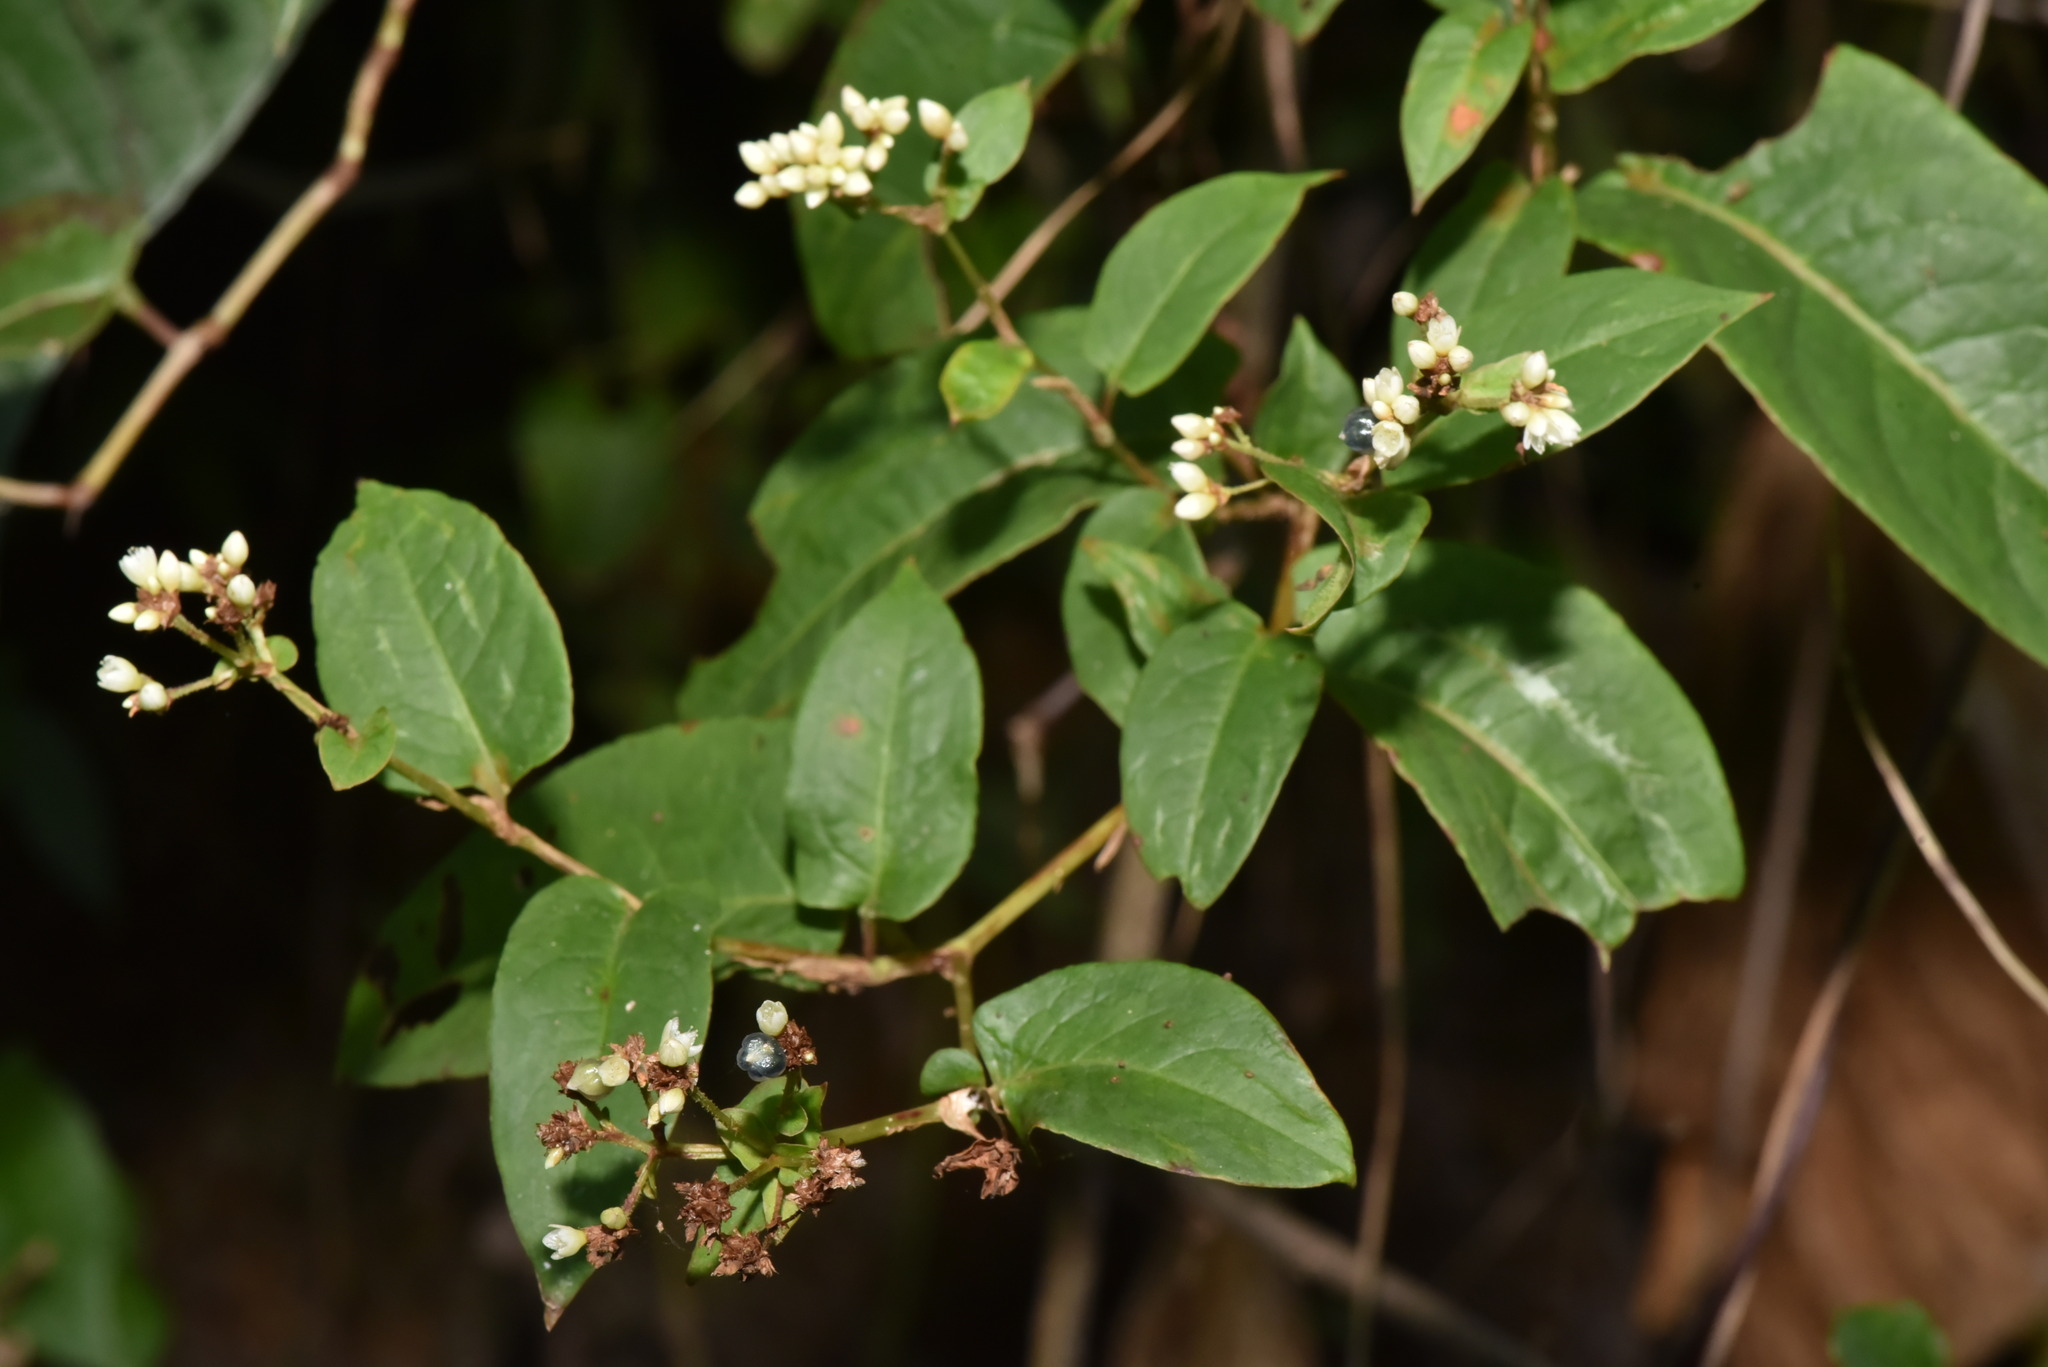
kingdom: Plantae
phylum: Tracheophyta
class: Magnoliopsida
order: Caryophyllales
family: Polygonaceae
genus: Persicaria
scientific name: Persicaria chinensis
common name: Chinese knotweed
